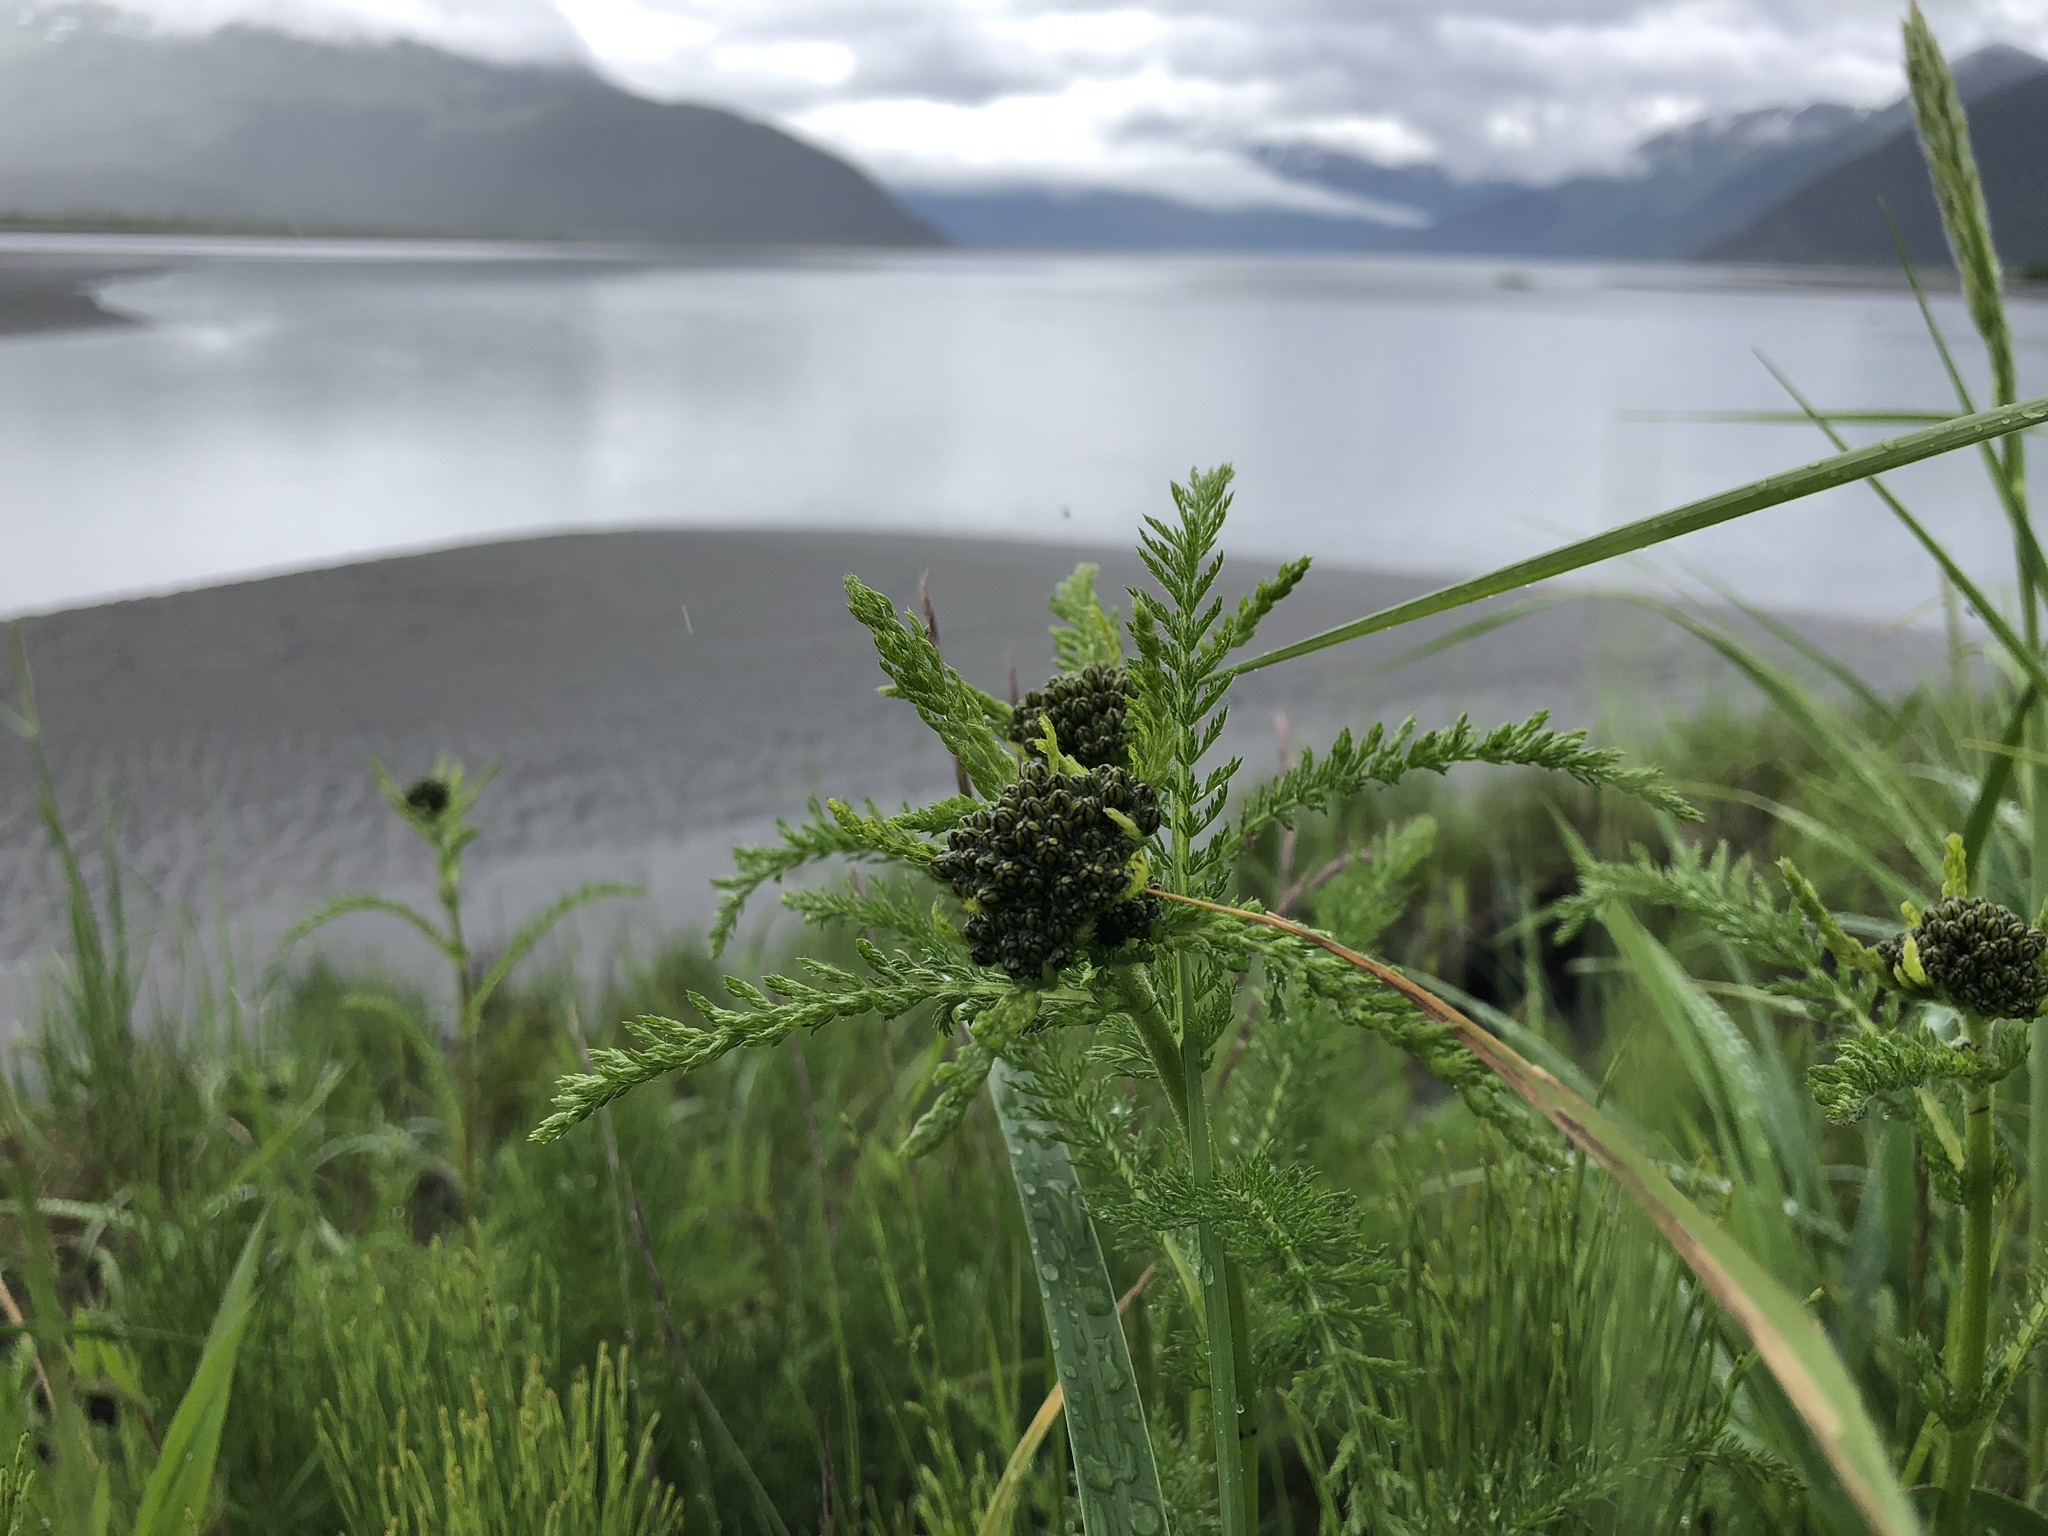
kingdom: Plantae
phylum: Tracheophyta
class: Magnoliopsida
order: Asterales
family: Asteraceae
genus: Achillea
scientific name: Achillea millefolium
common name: Yarrow
